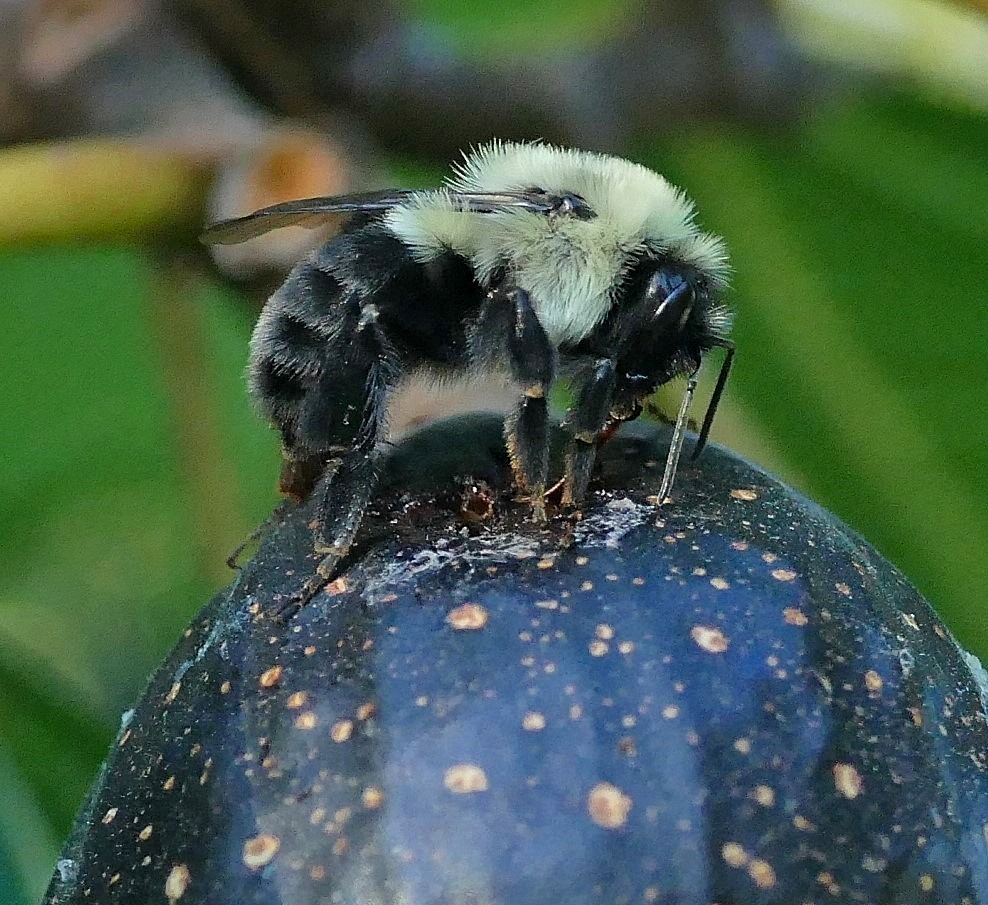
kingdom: Animalia
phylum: Arthropoda
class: Insecta
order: Hymenoptera
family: Apidae
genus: Bombus
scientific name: Bombus impatiens
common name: Common eastern bumble bee
